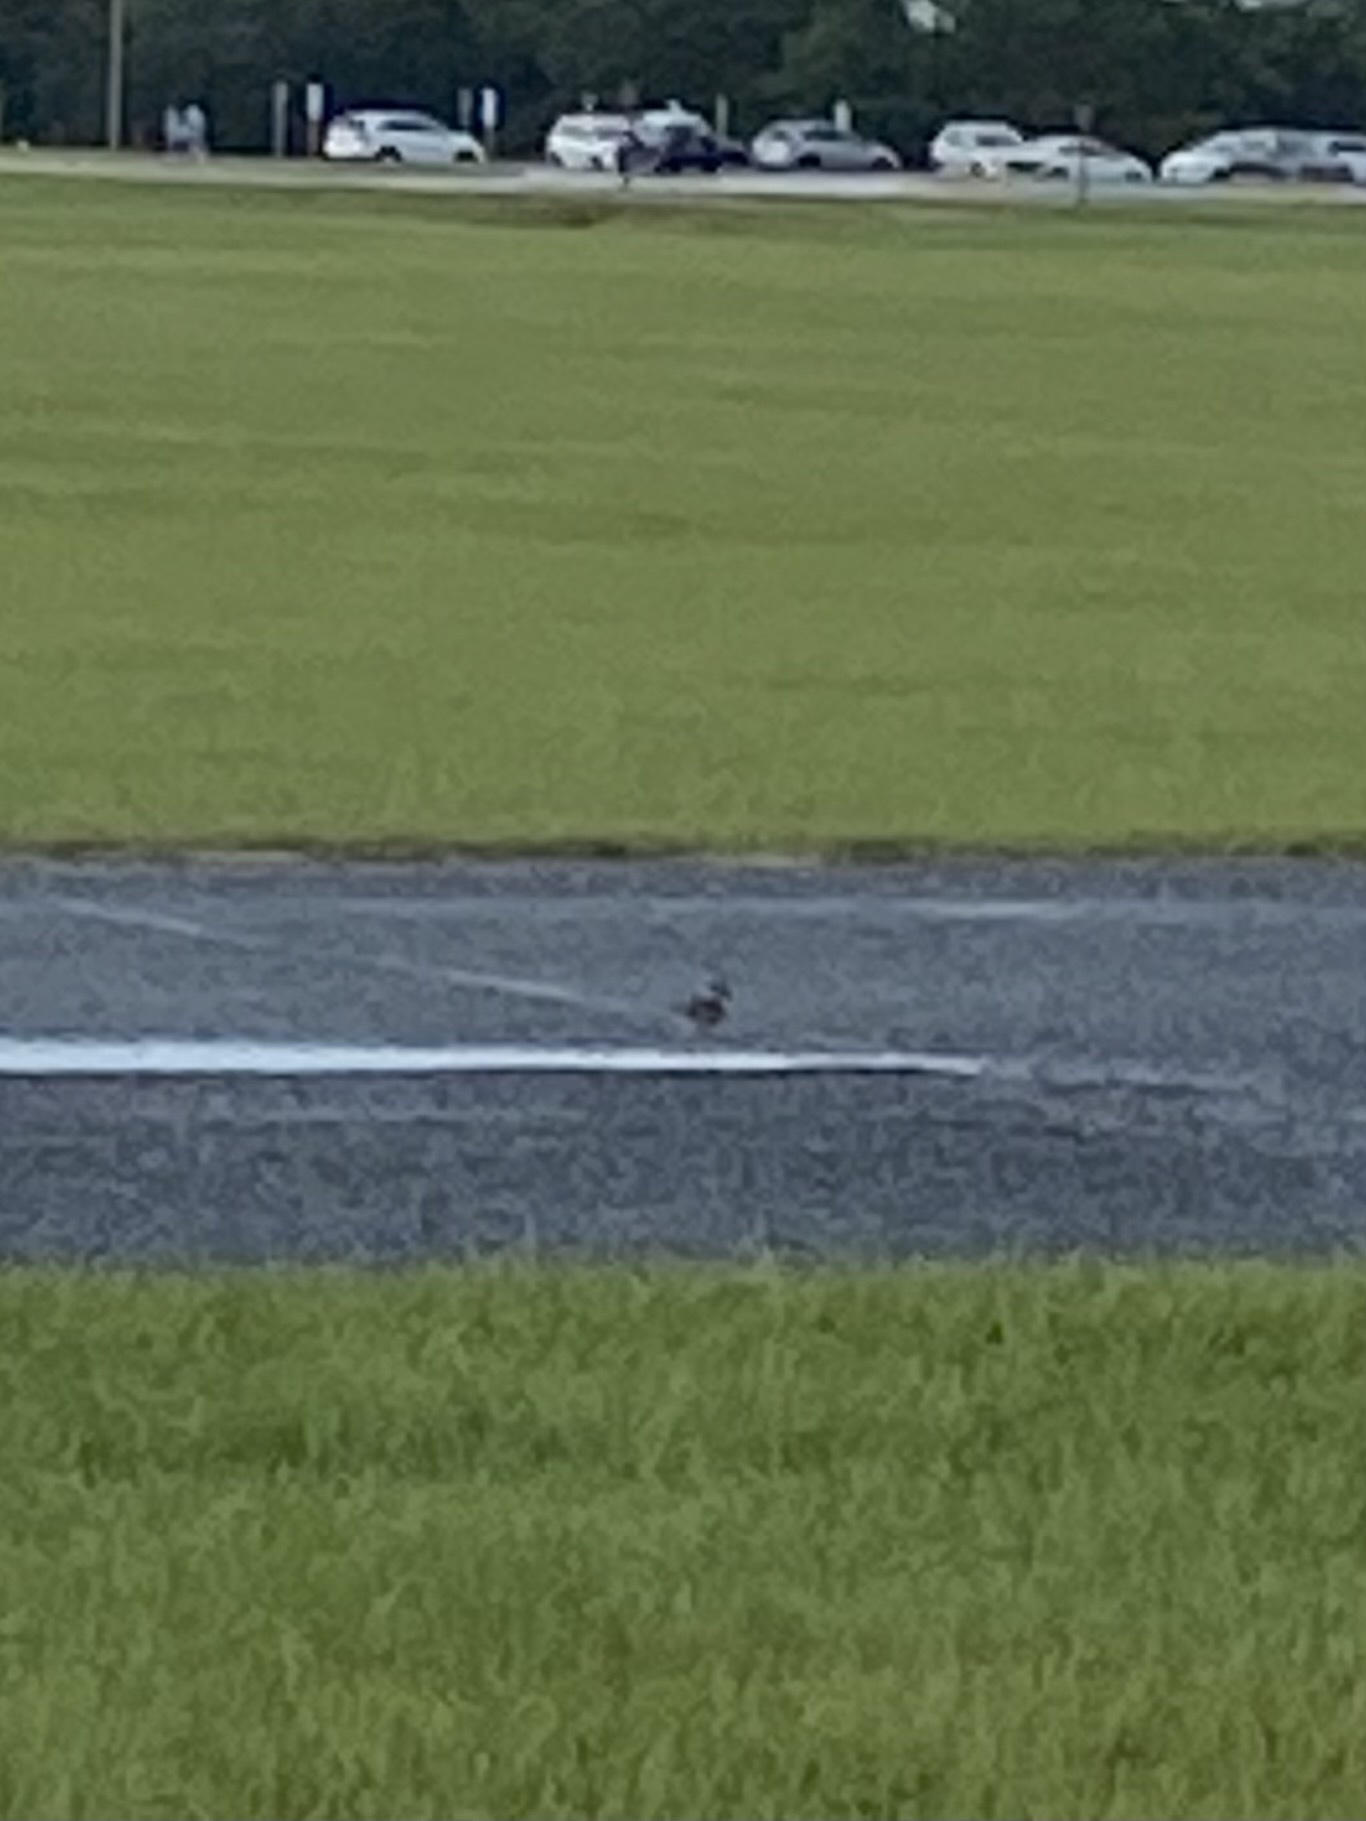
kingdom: Animalia
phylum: Chordata
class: Aves
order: Charadriiformes
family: Charadriidae
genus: Charadrius
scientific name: Charadrius vociferus
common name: Killdeer
